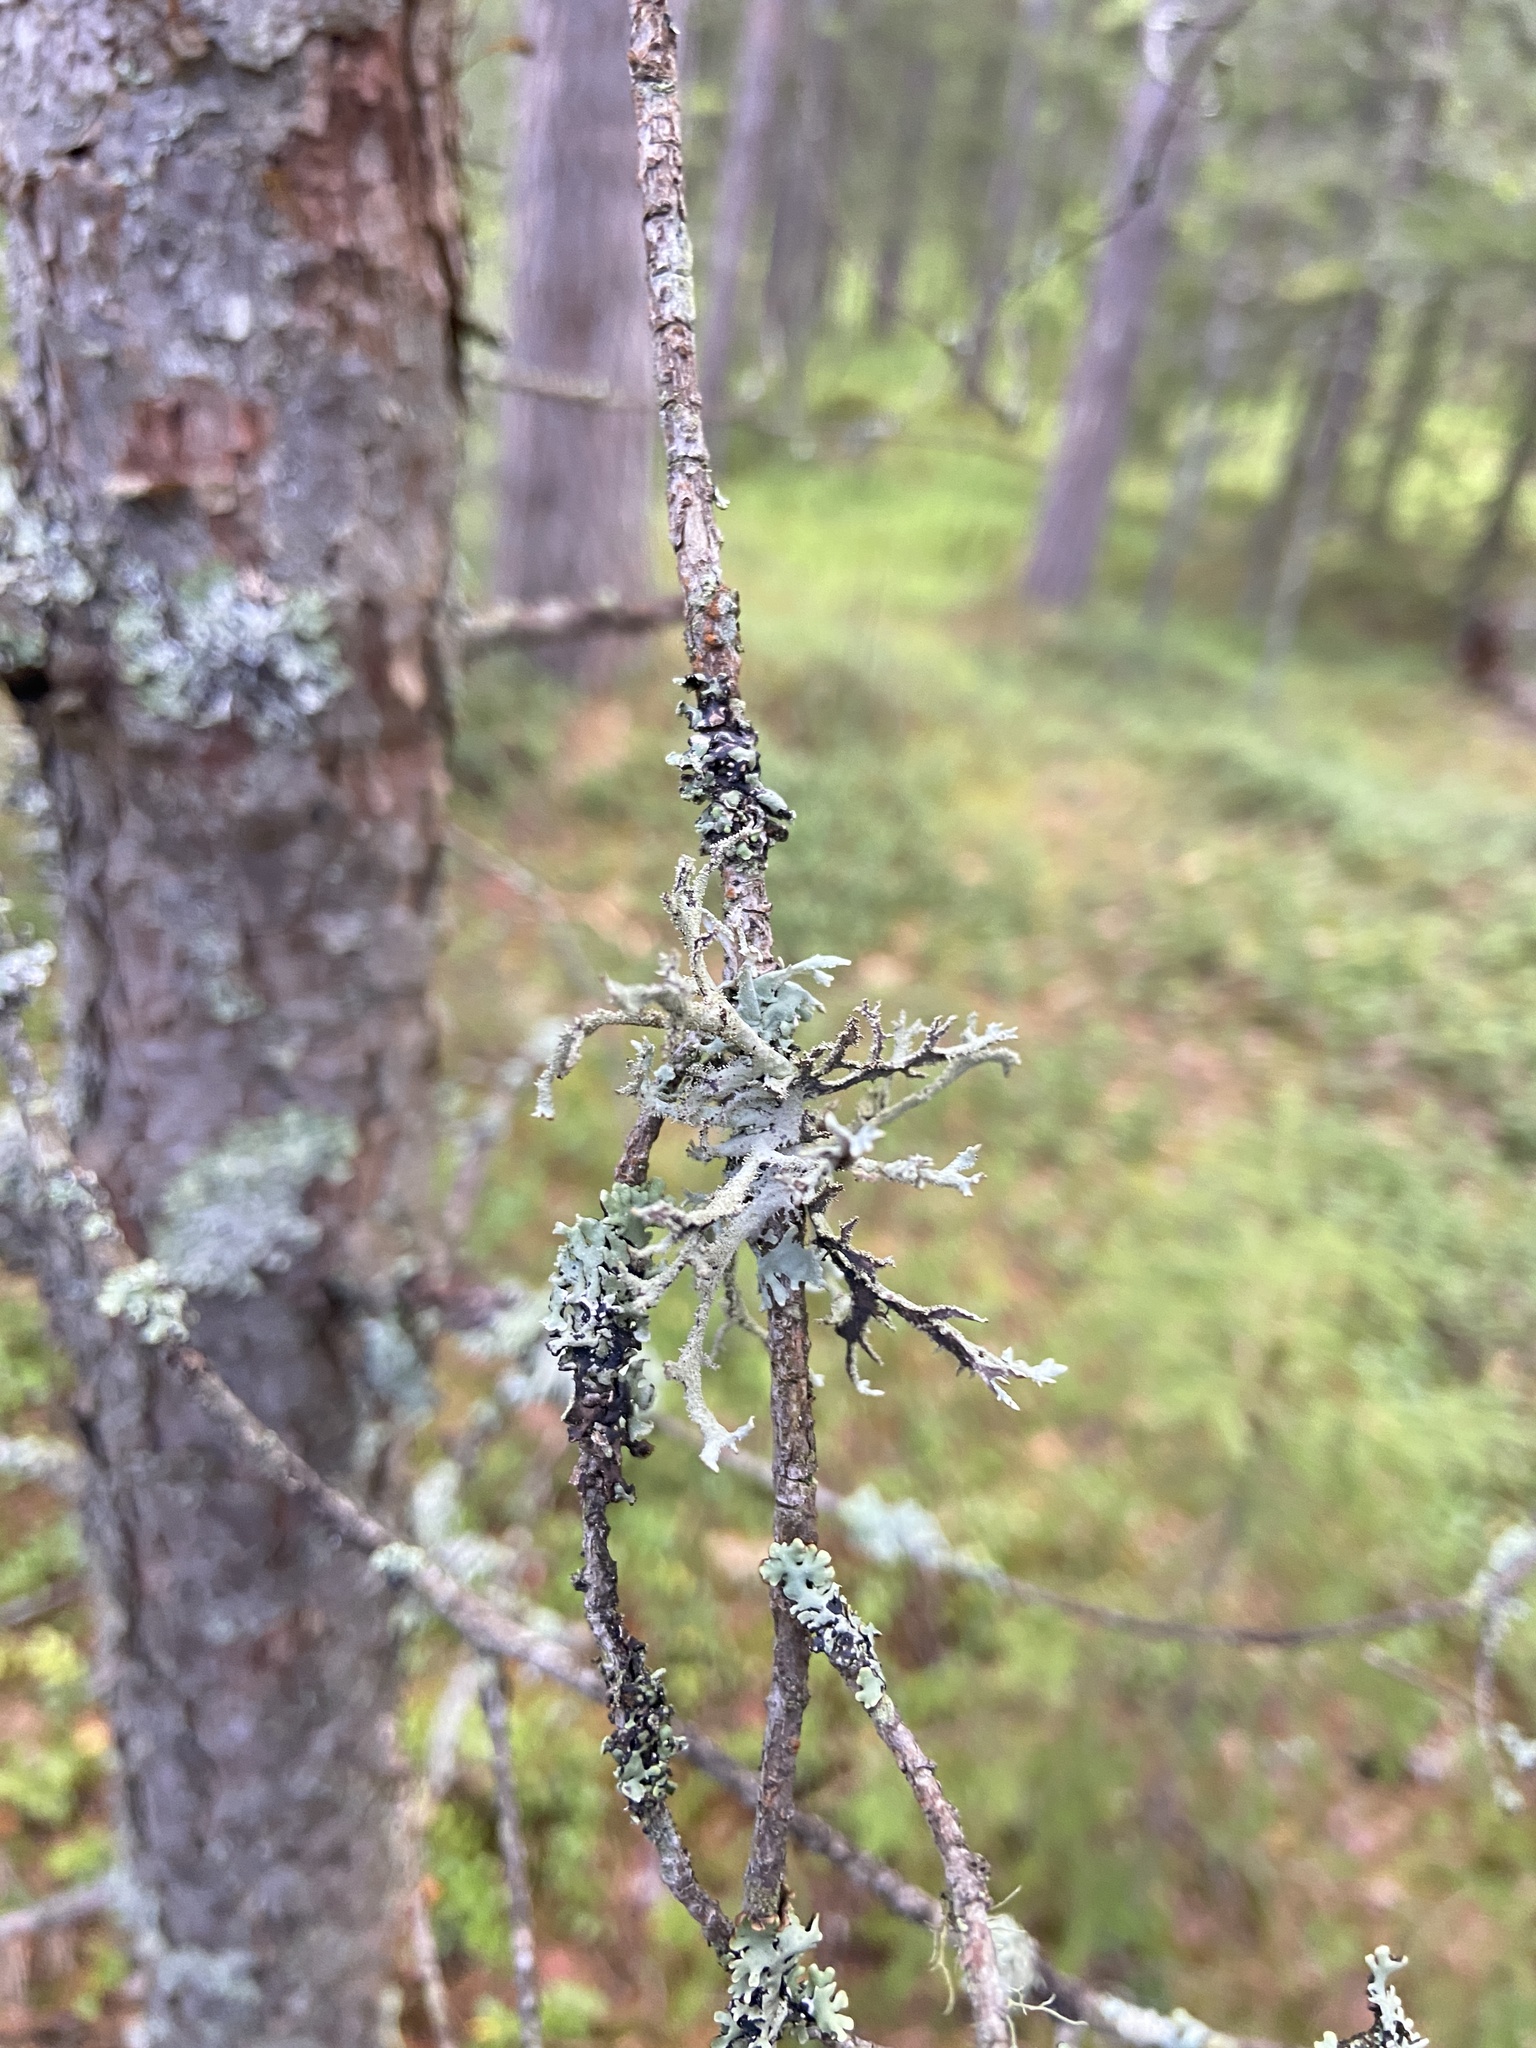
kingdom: Fungi
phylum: Ascomycota
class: Lecanoromycetes
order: Lecanorales
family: Parmeliaceae
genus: Pseudevernia
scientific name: Pseudevernia furfuracea
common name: Tree moss
